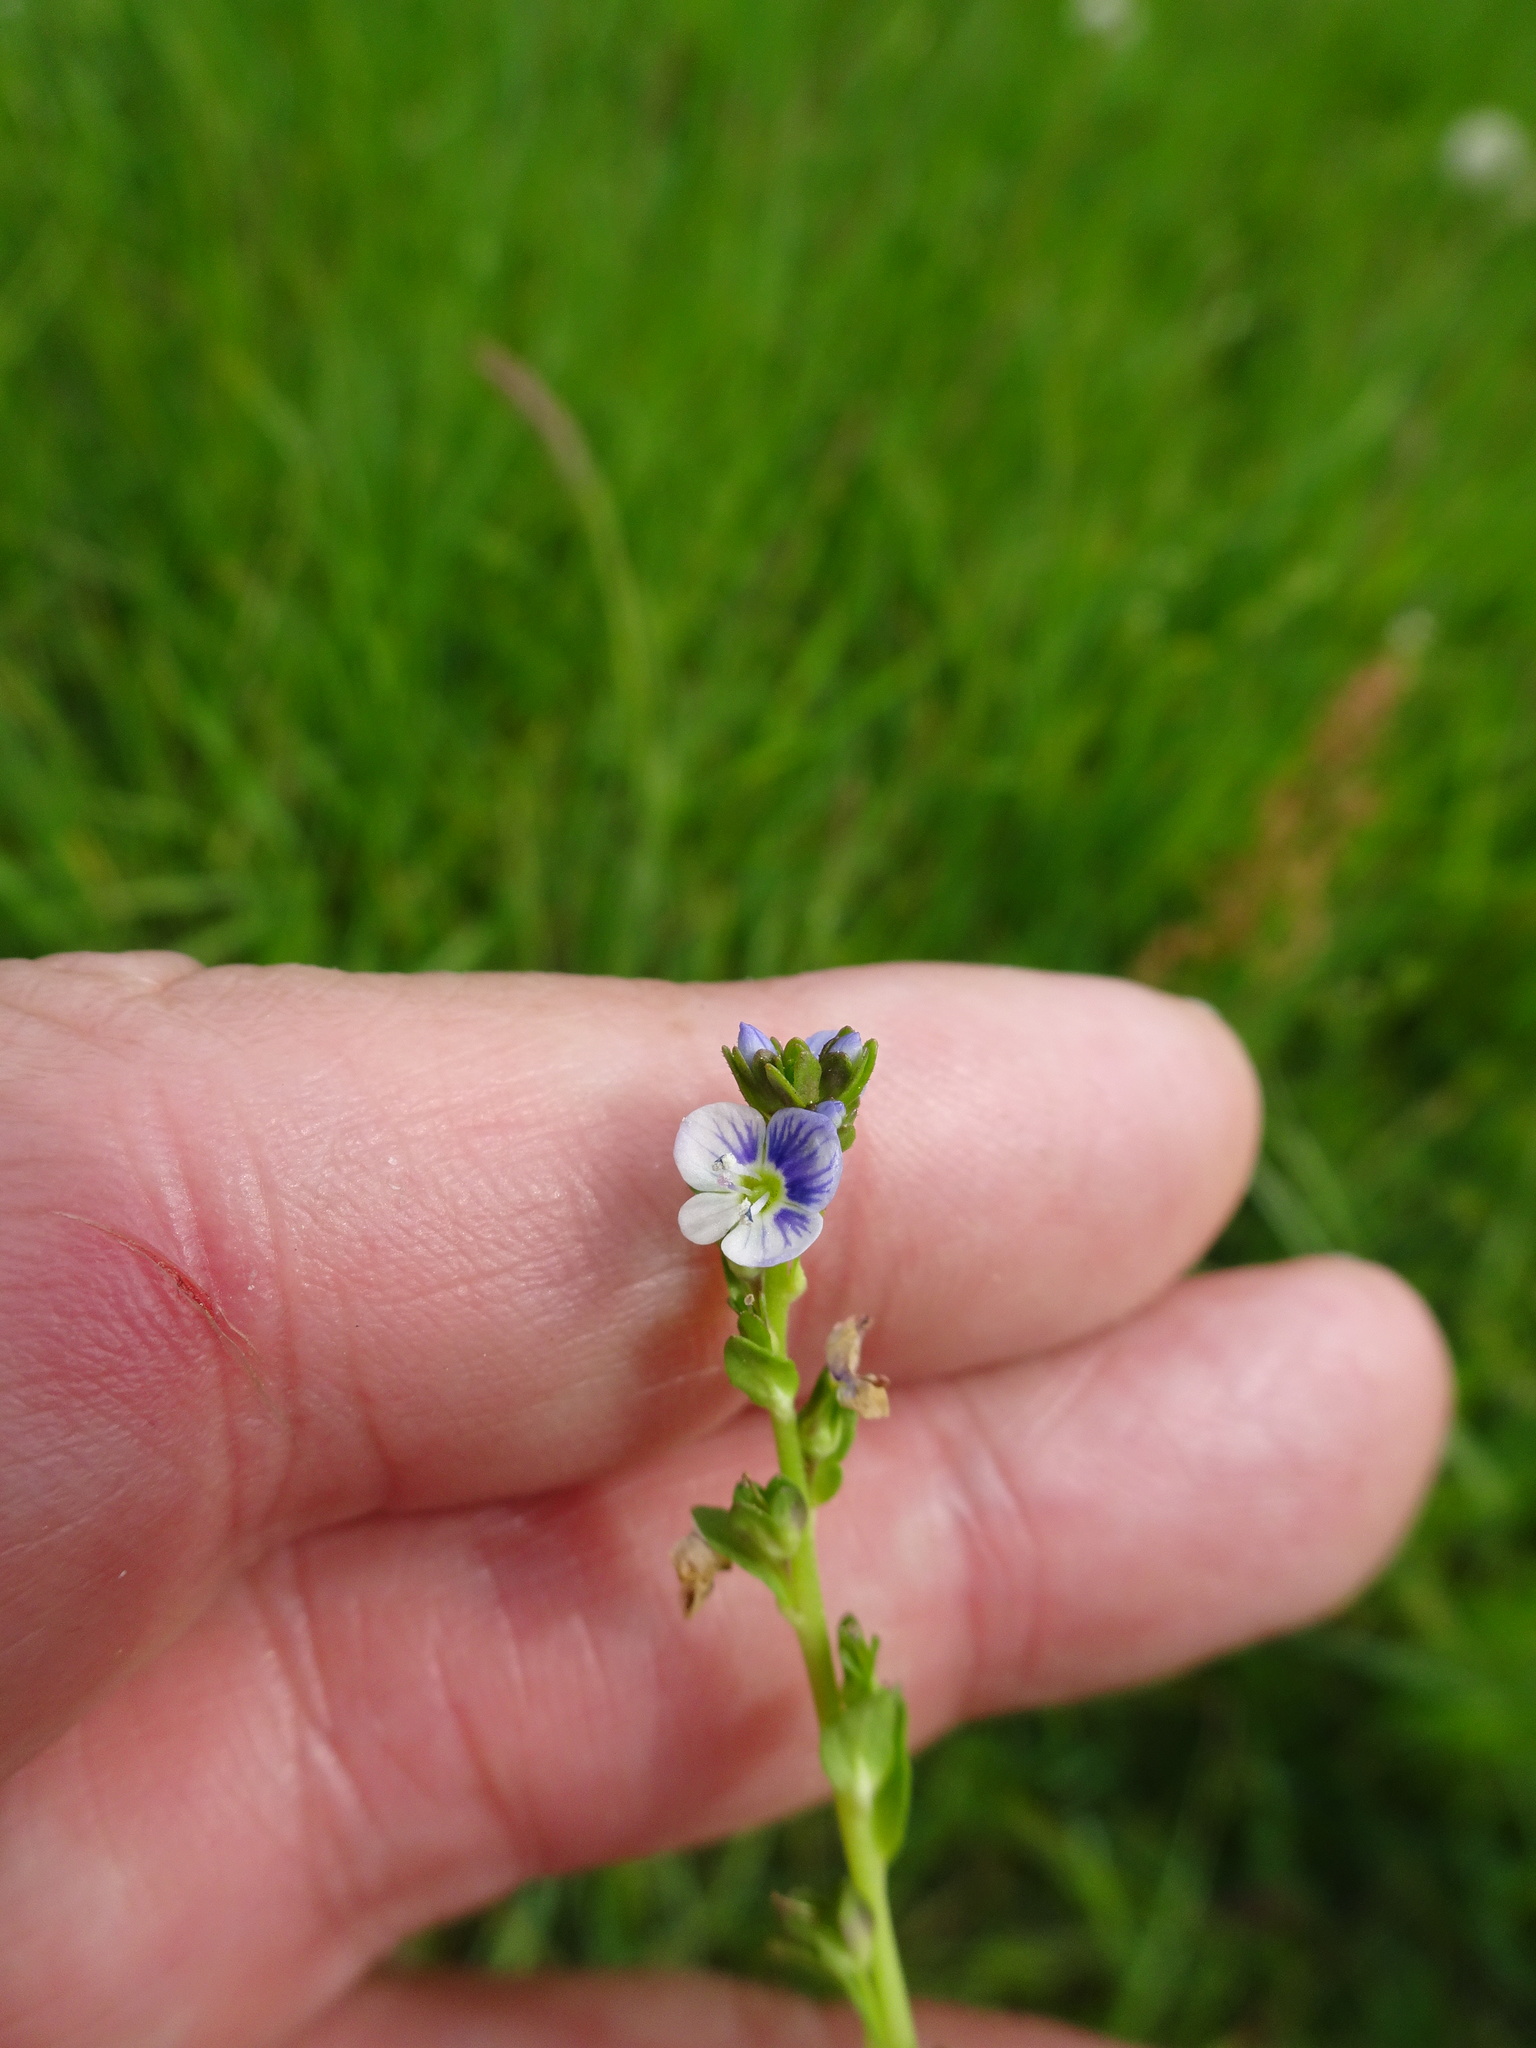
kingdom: Plantae
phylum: Tracheophyta
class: Magnoliopsida
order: Lamiales
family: Plantaginaceae
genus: Veronica
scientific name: Veronica serpyllifolia
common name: Thyme-leaved speedwell
